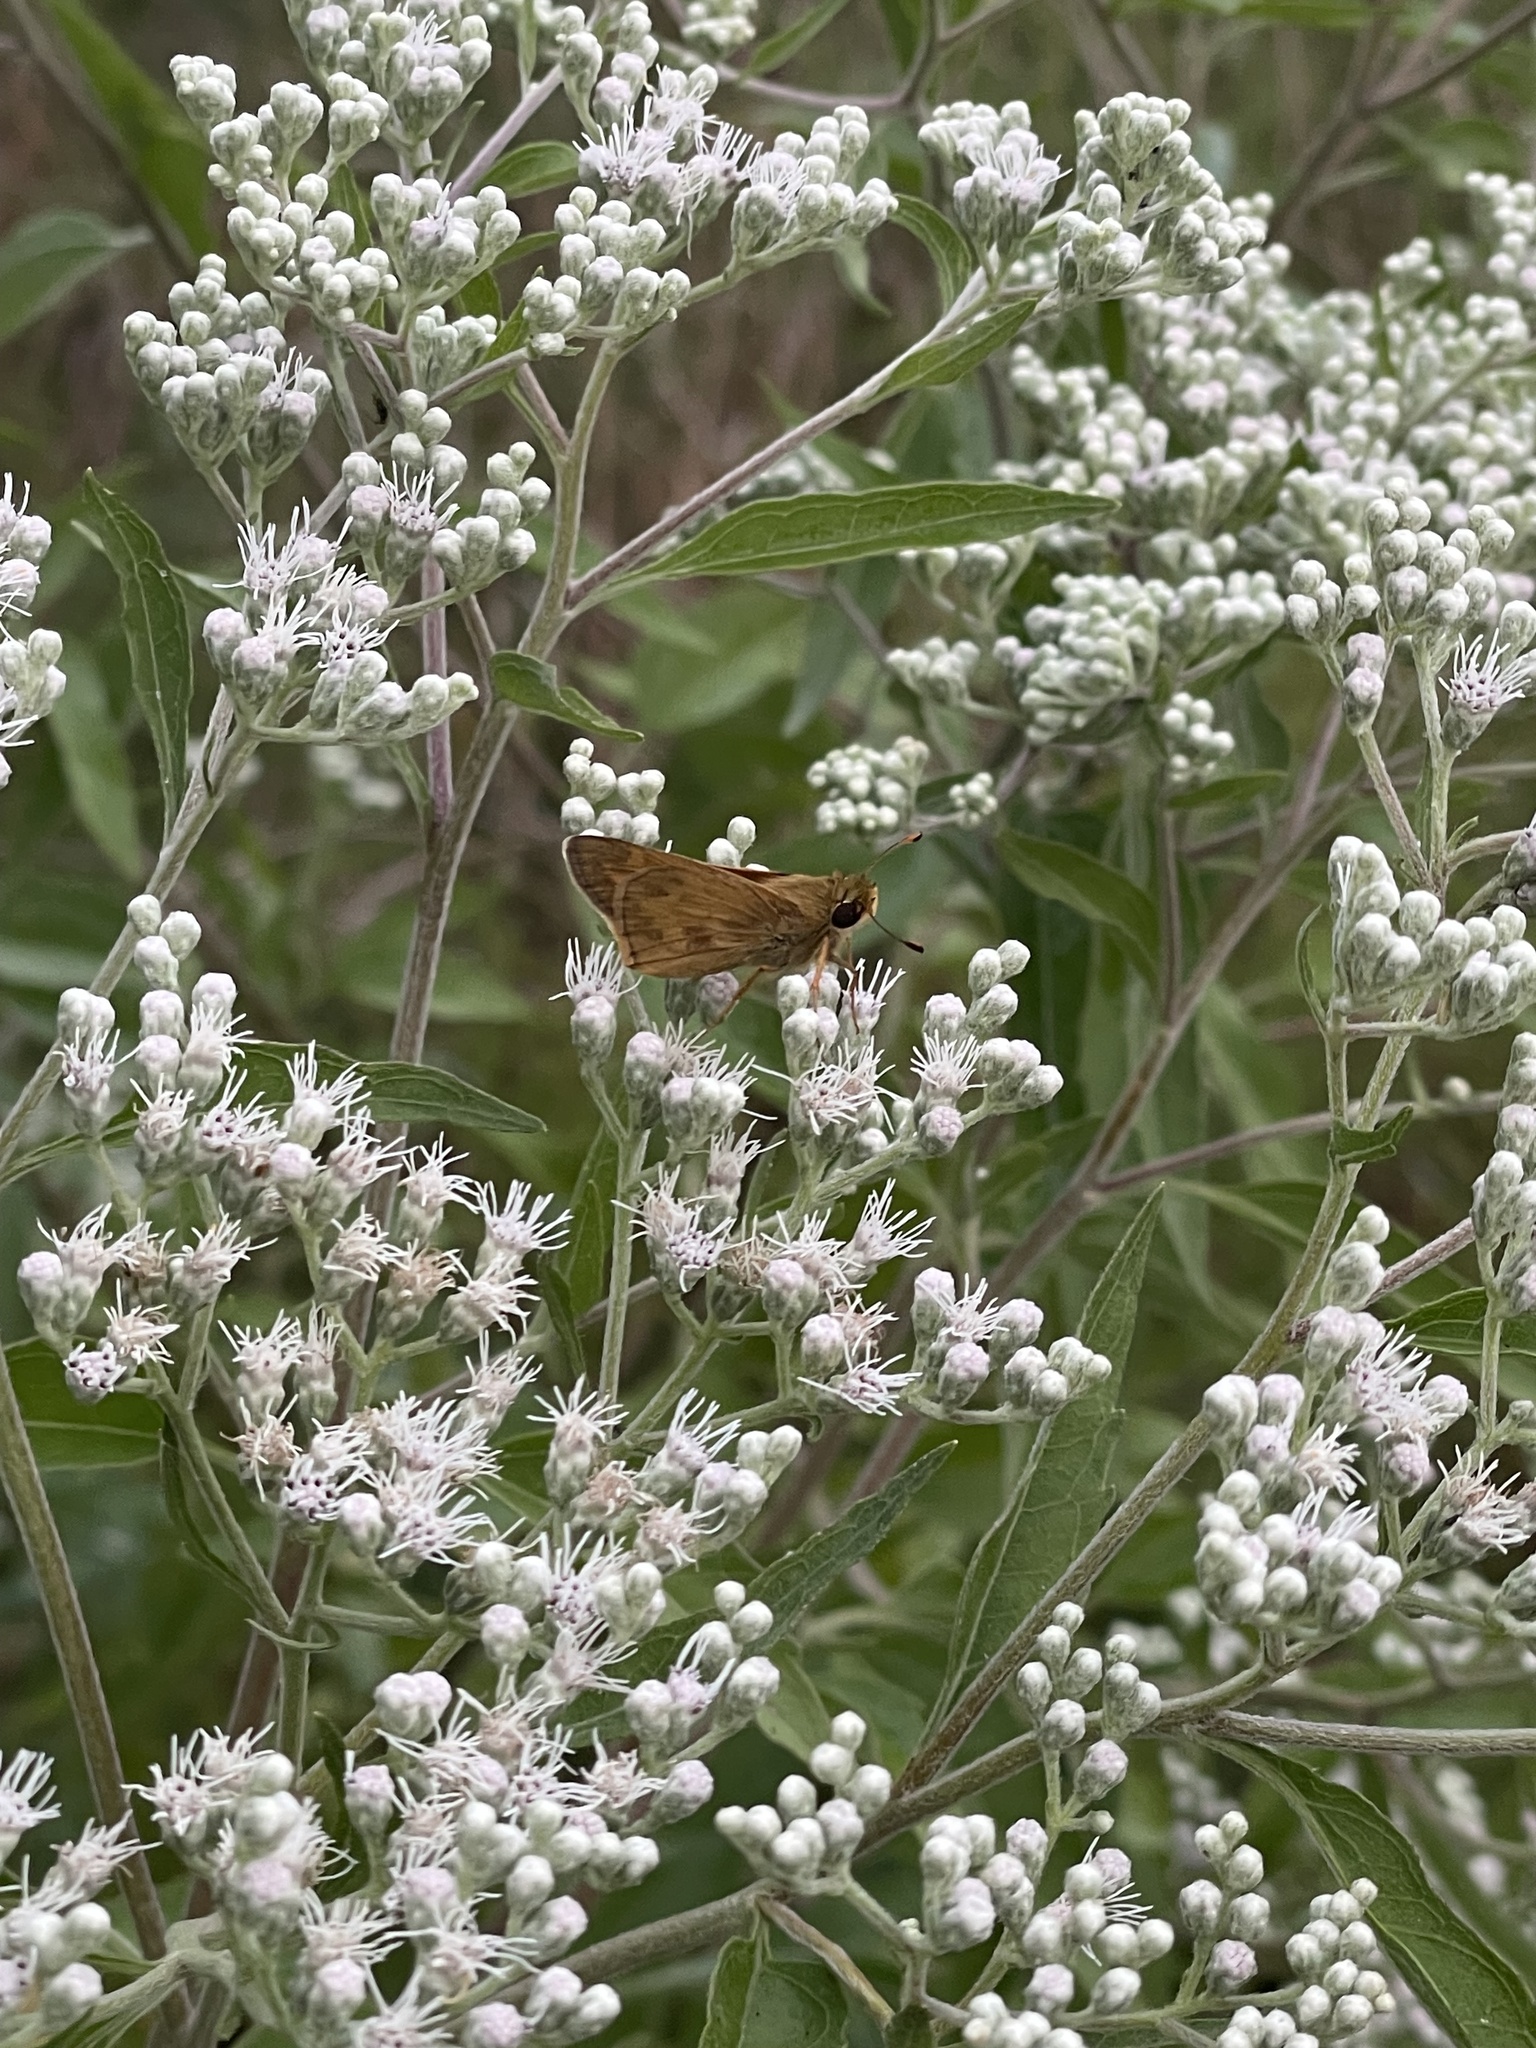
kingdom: Animalia
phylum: Arthropoda
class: Insecta
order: Lepidoptera
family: Hesperiidae
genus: Atalopedes
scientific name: Atalopedes
